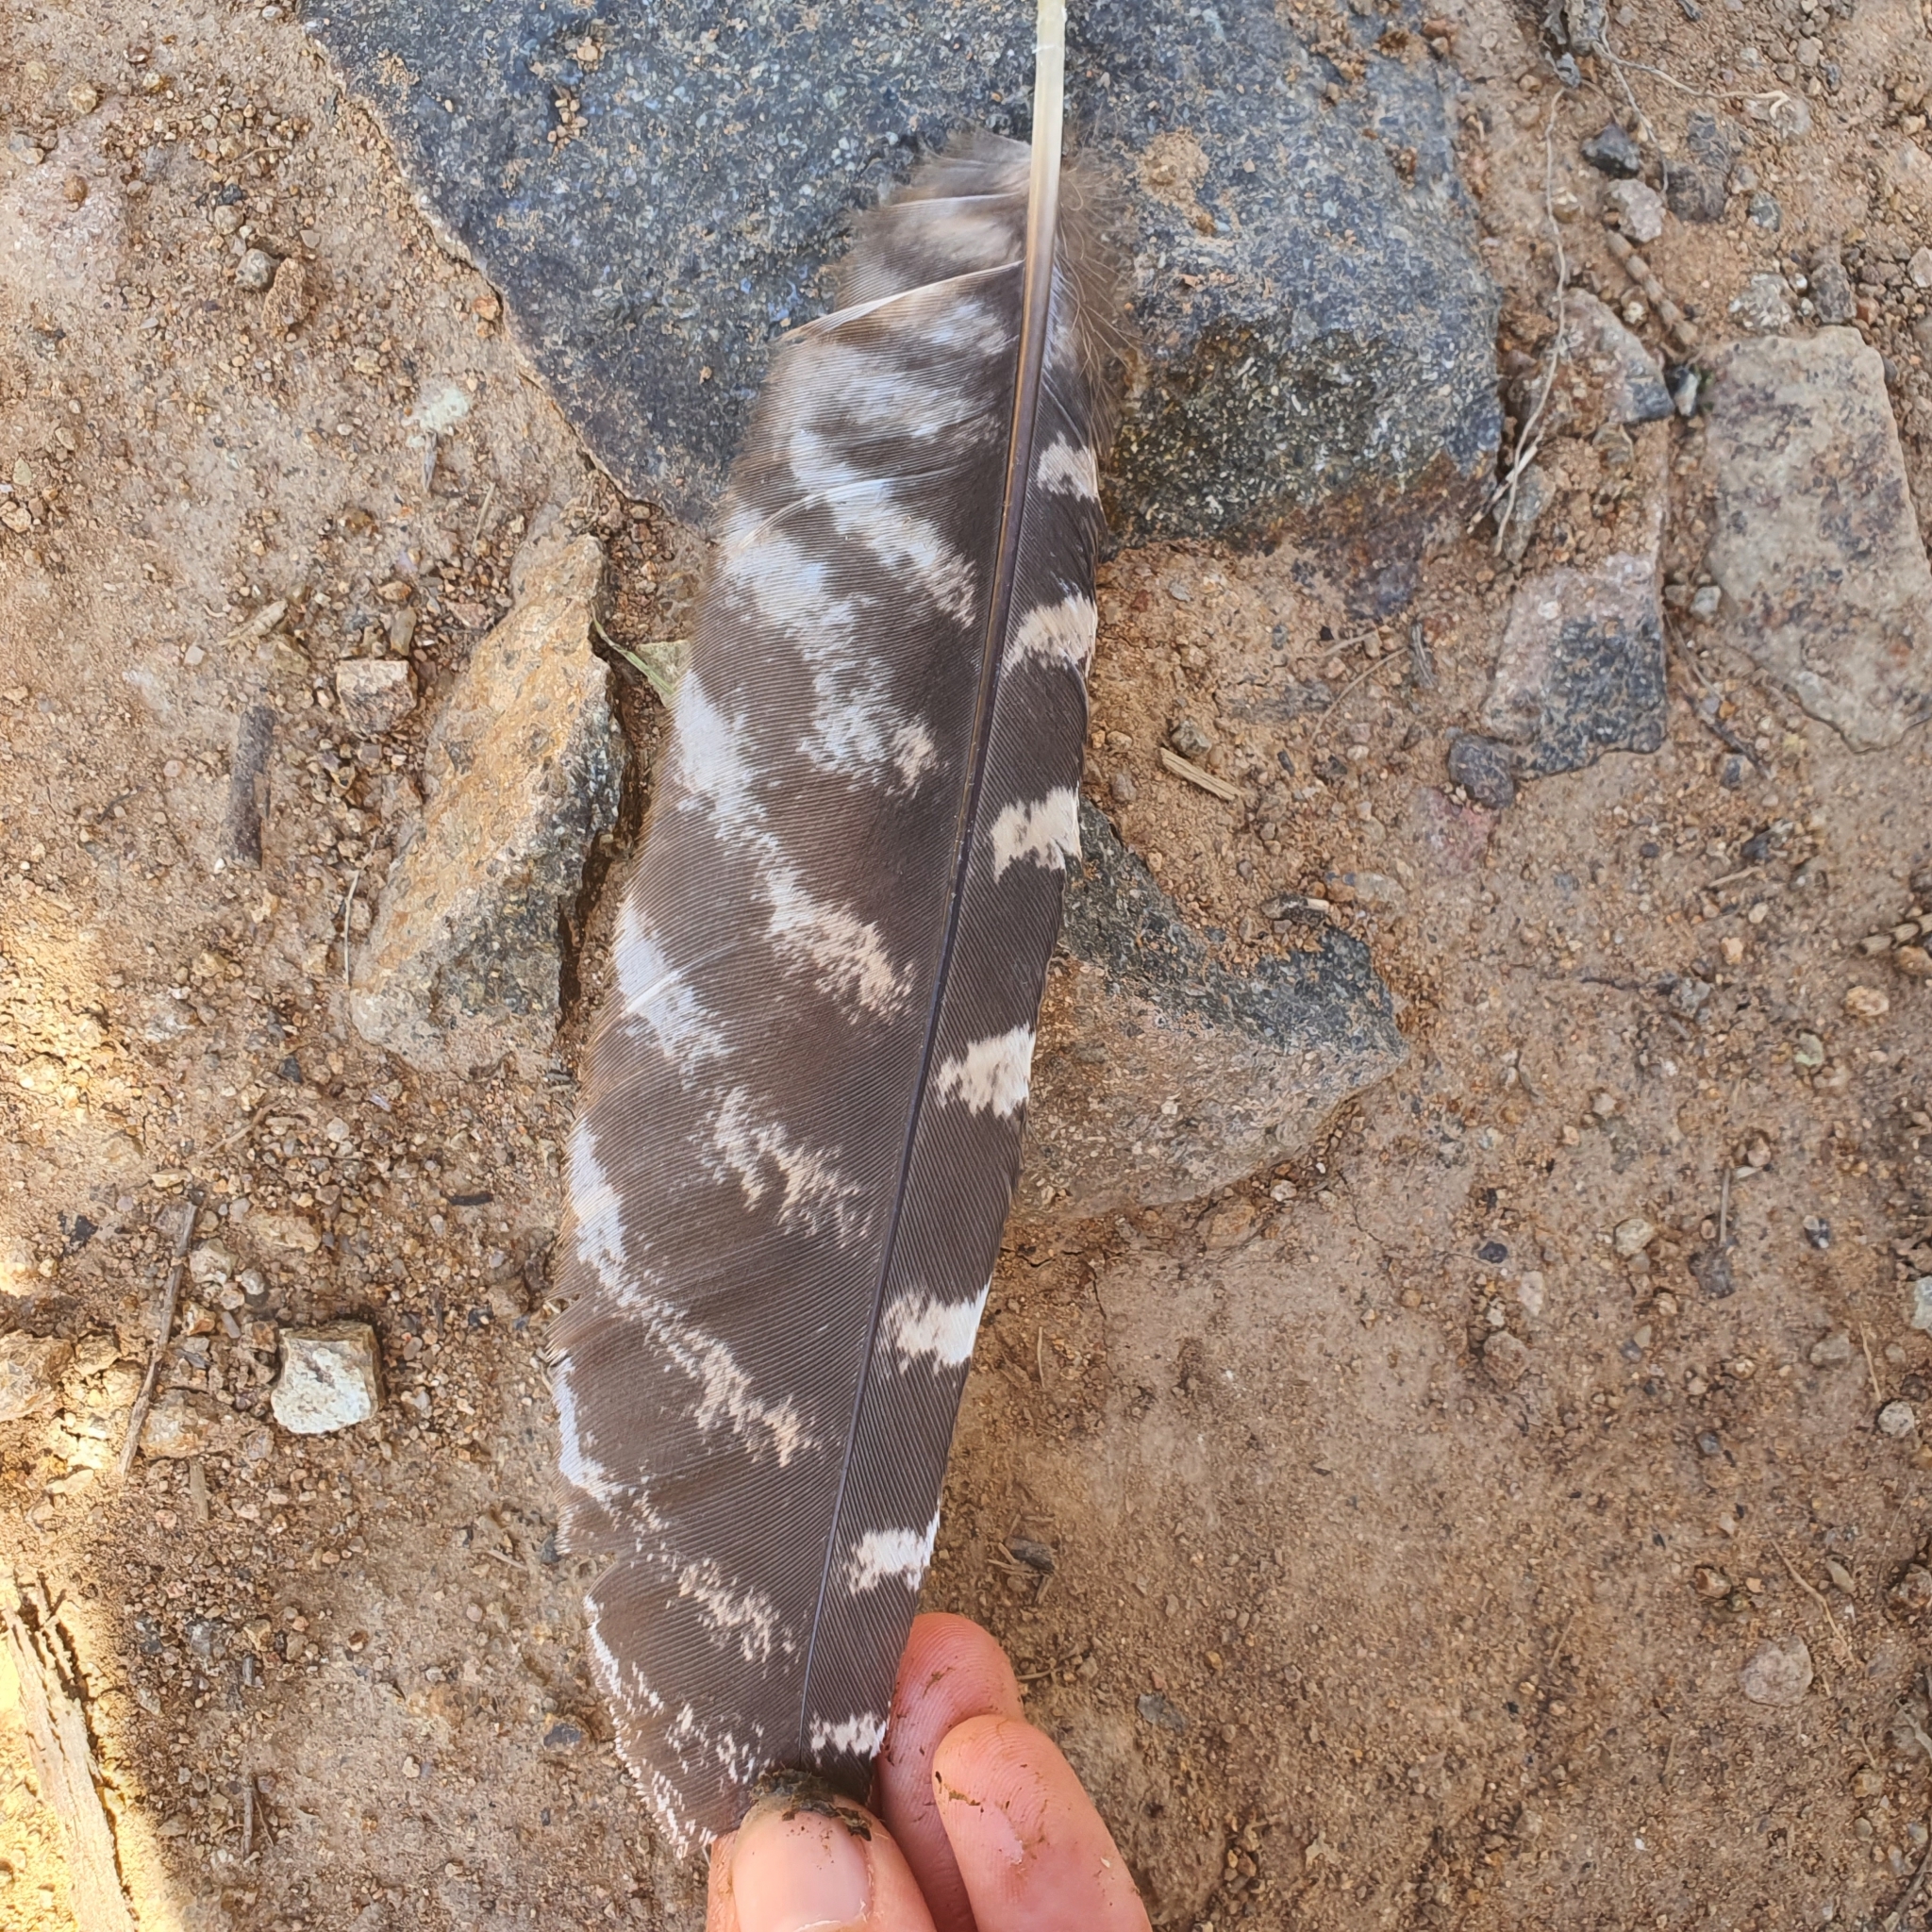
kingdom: Animalia
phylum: Chordata
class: Aves
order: Caprimulgiformes
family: Podargidae
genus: Podargus
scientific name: Podargus strigoides
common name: Tawny frogmouth
